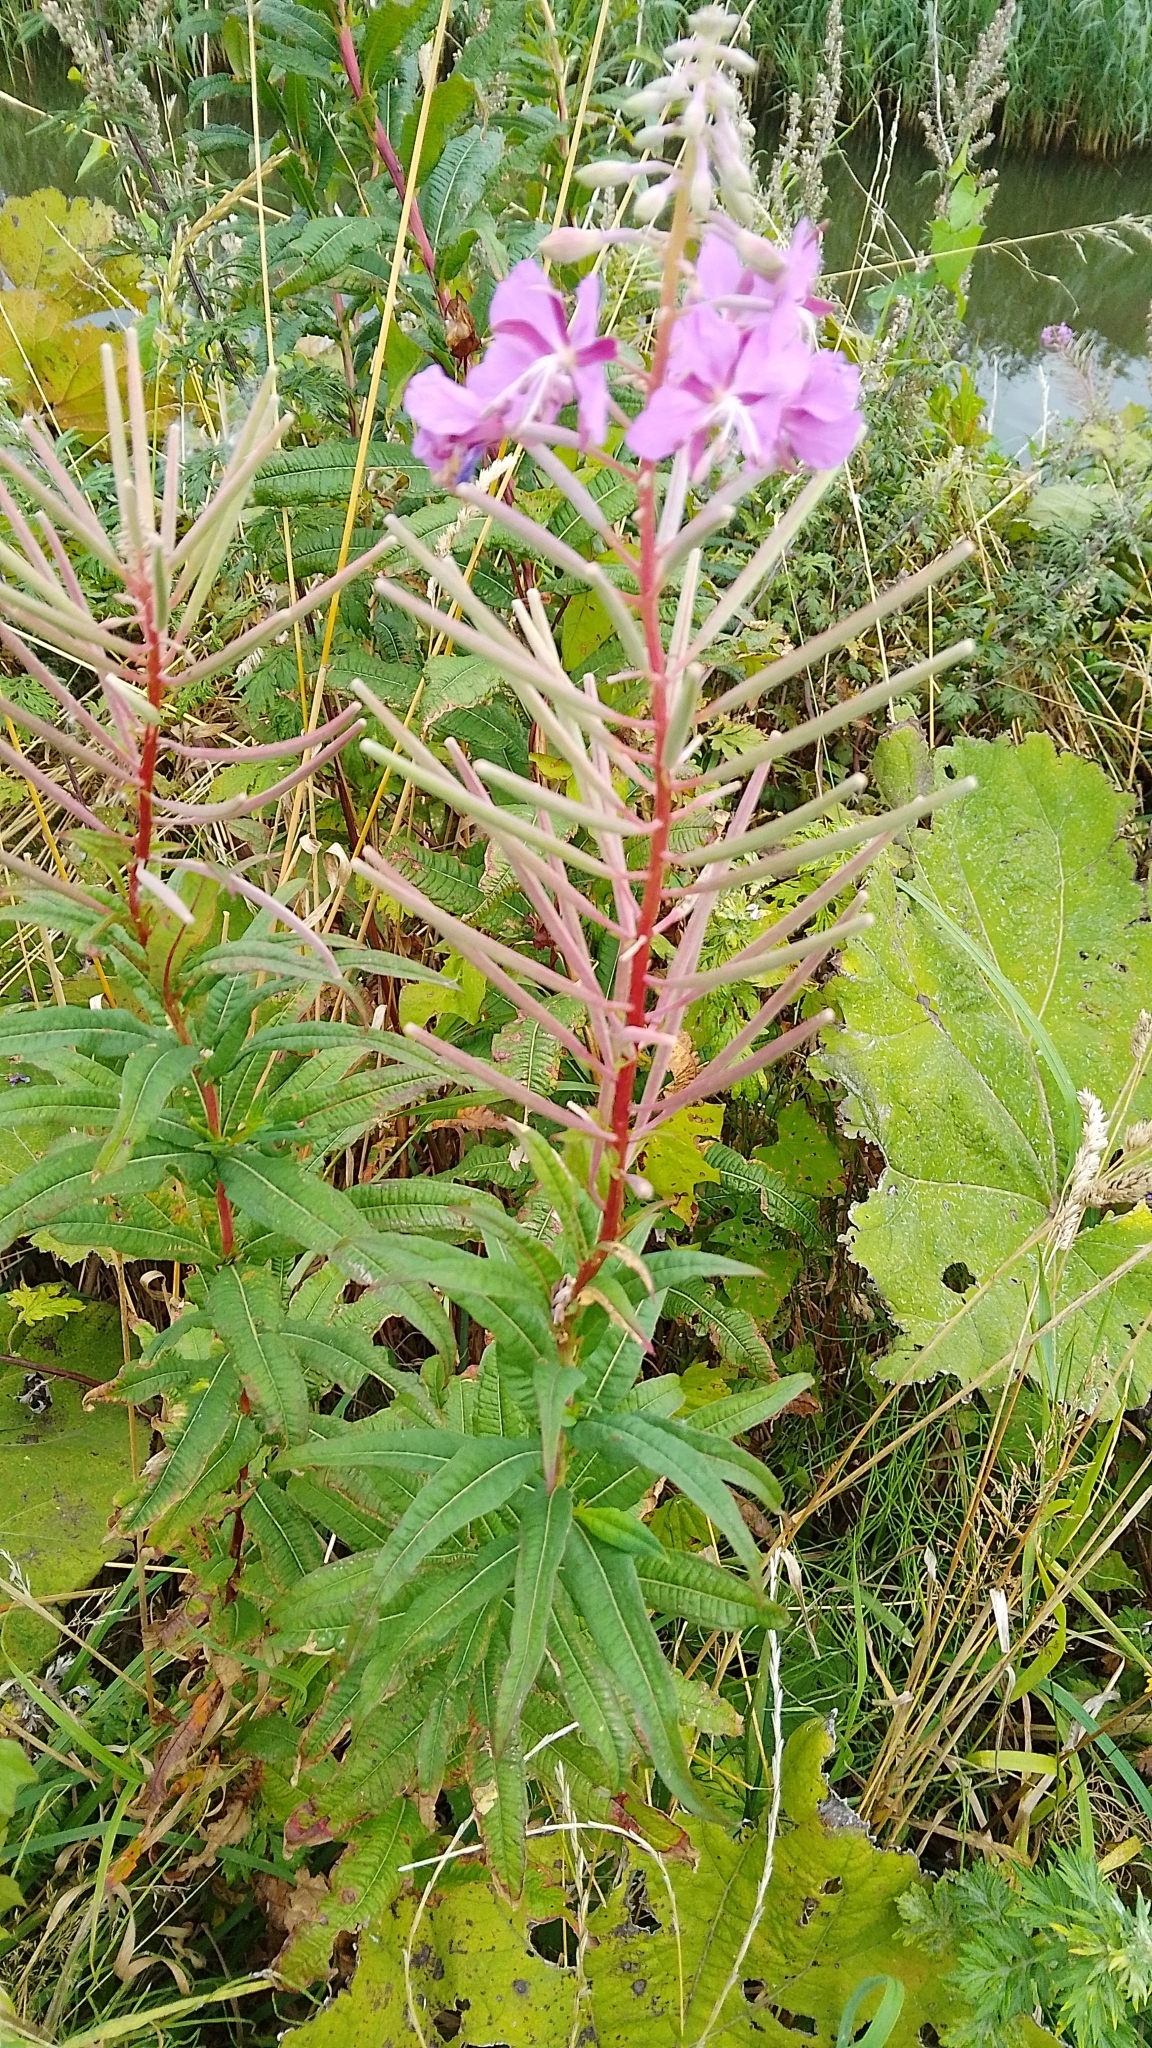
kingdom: Plantae
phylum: Tracheophyta
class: Magnoliopsida
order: Myrtales
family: Onagraceae
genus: Chamaenerion
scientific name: Chamaenerion angustifolium
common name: Fireweed
